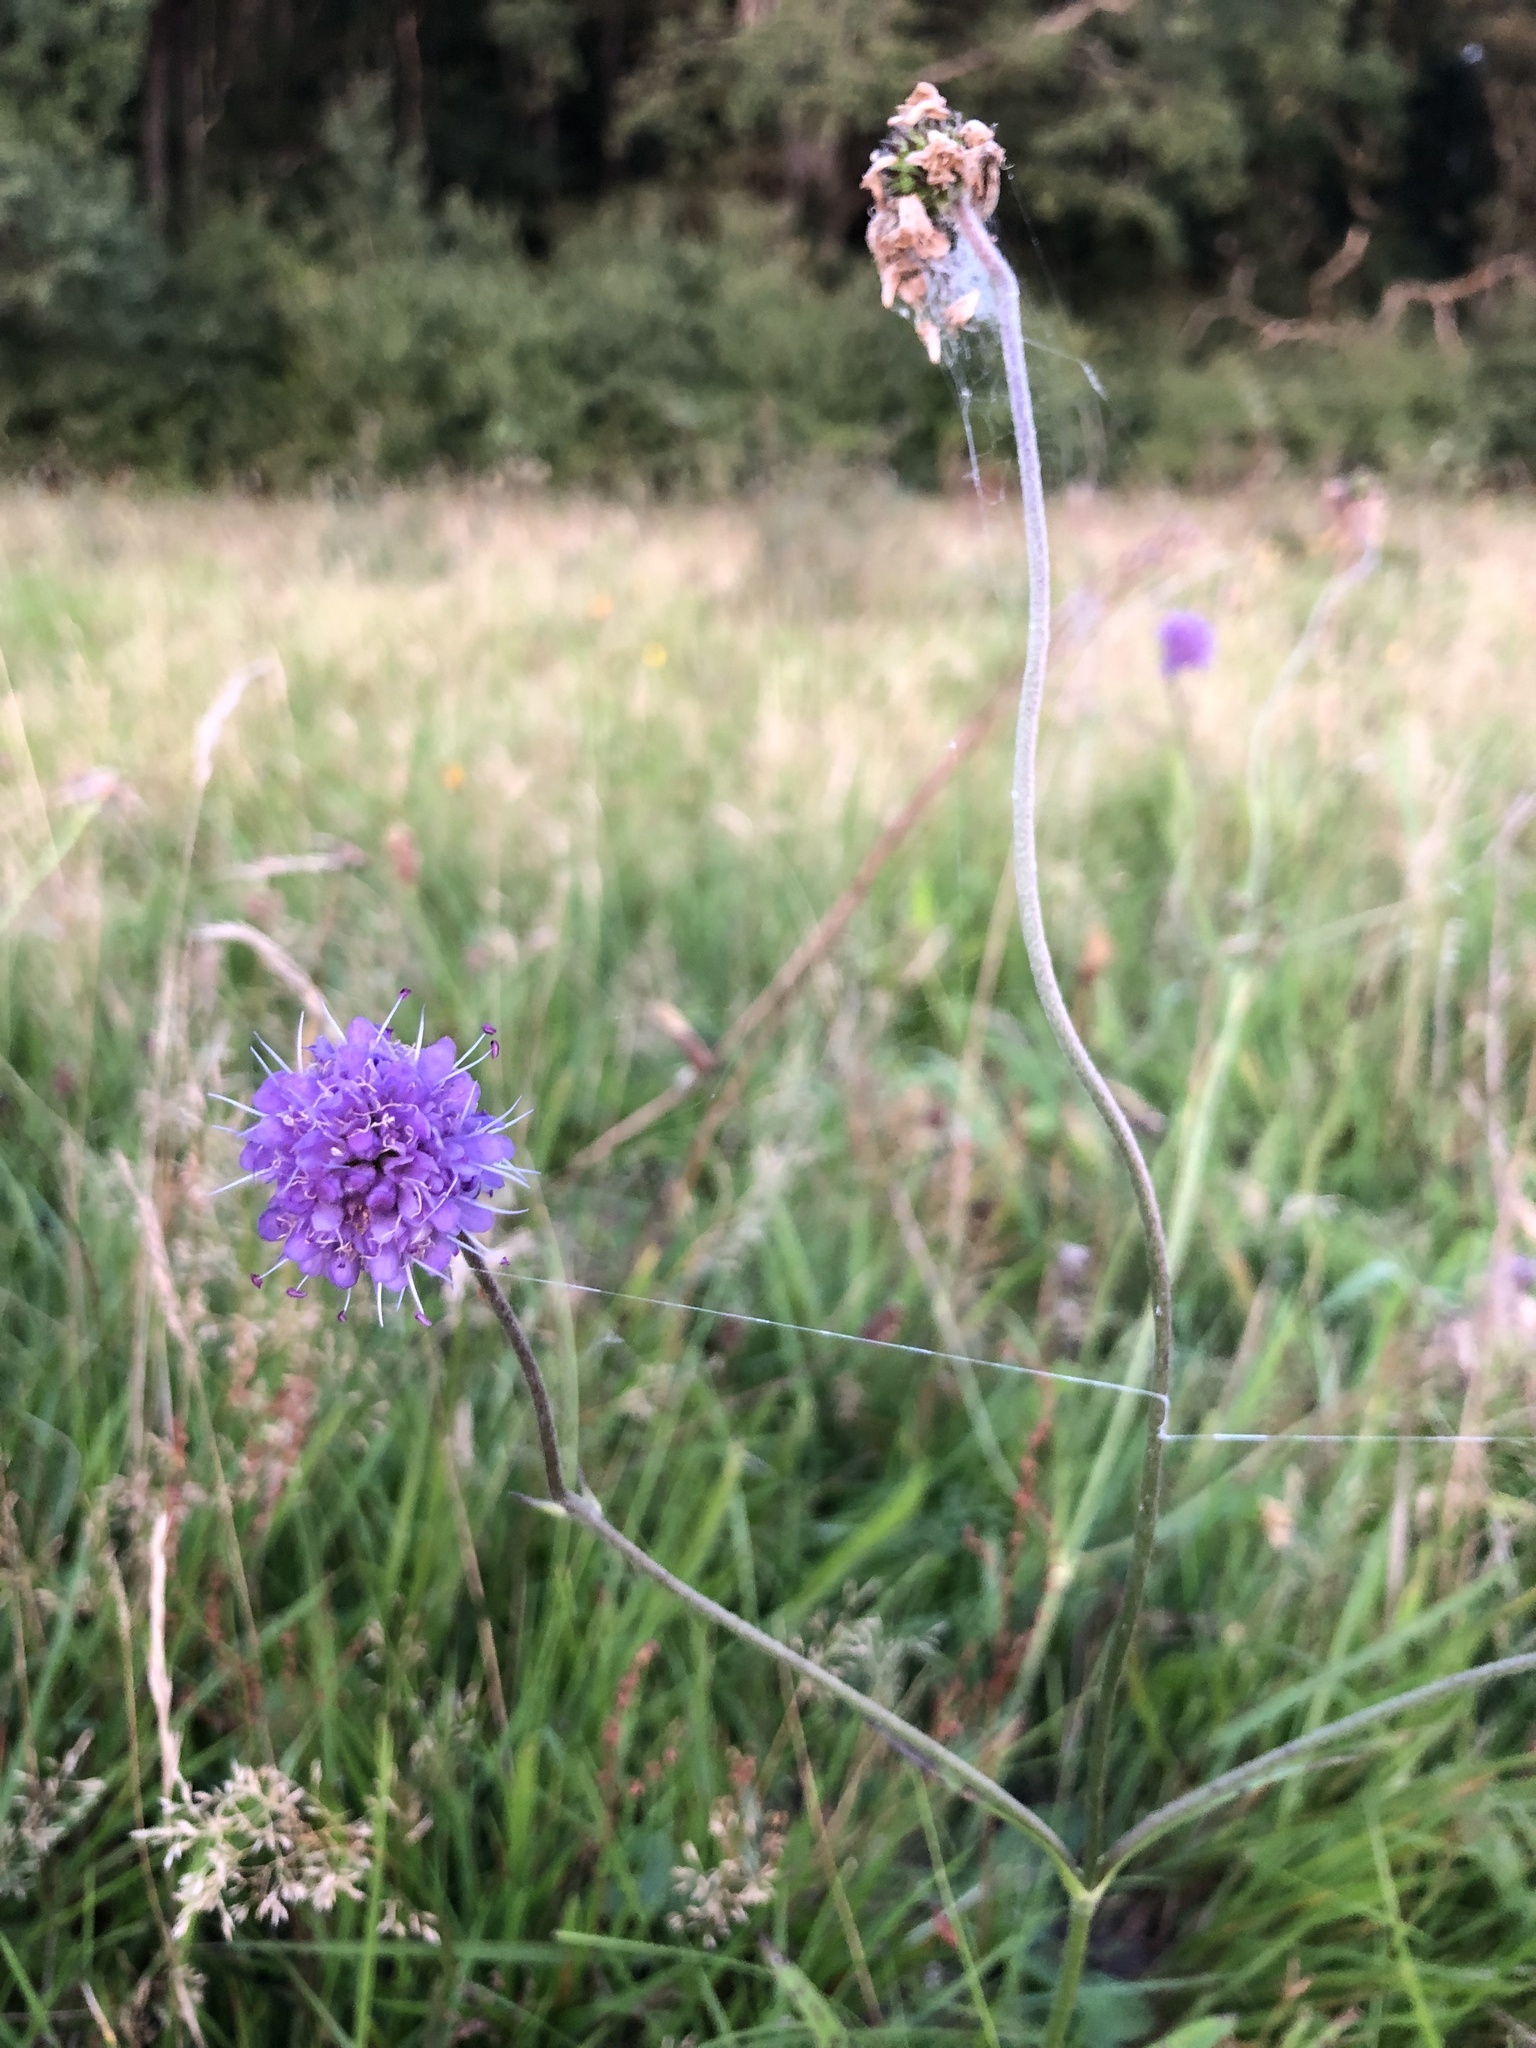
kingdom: Plantae
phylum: Tracheophyta
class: Magnoliopsida
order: Dipsacales
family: Caprifoliaceae
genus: Succisa
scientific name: Succisa pratensis
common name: Devil's-bit
